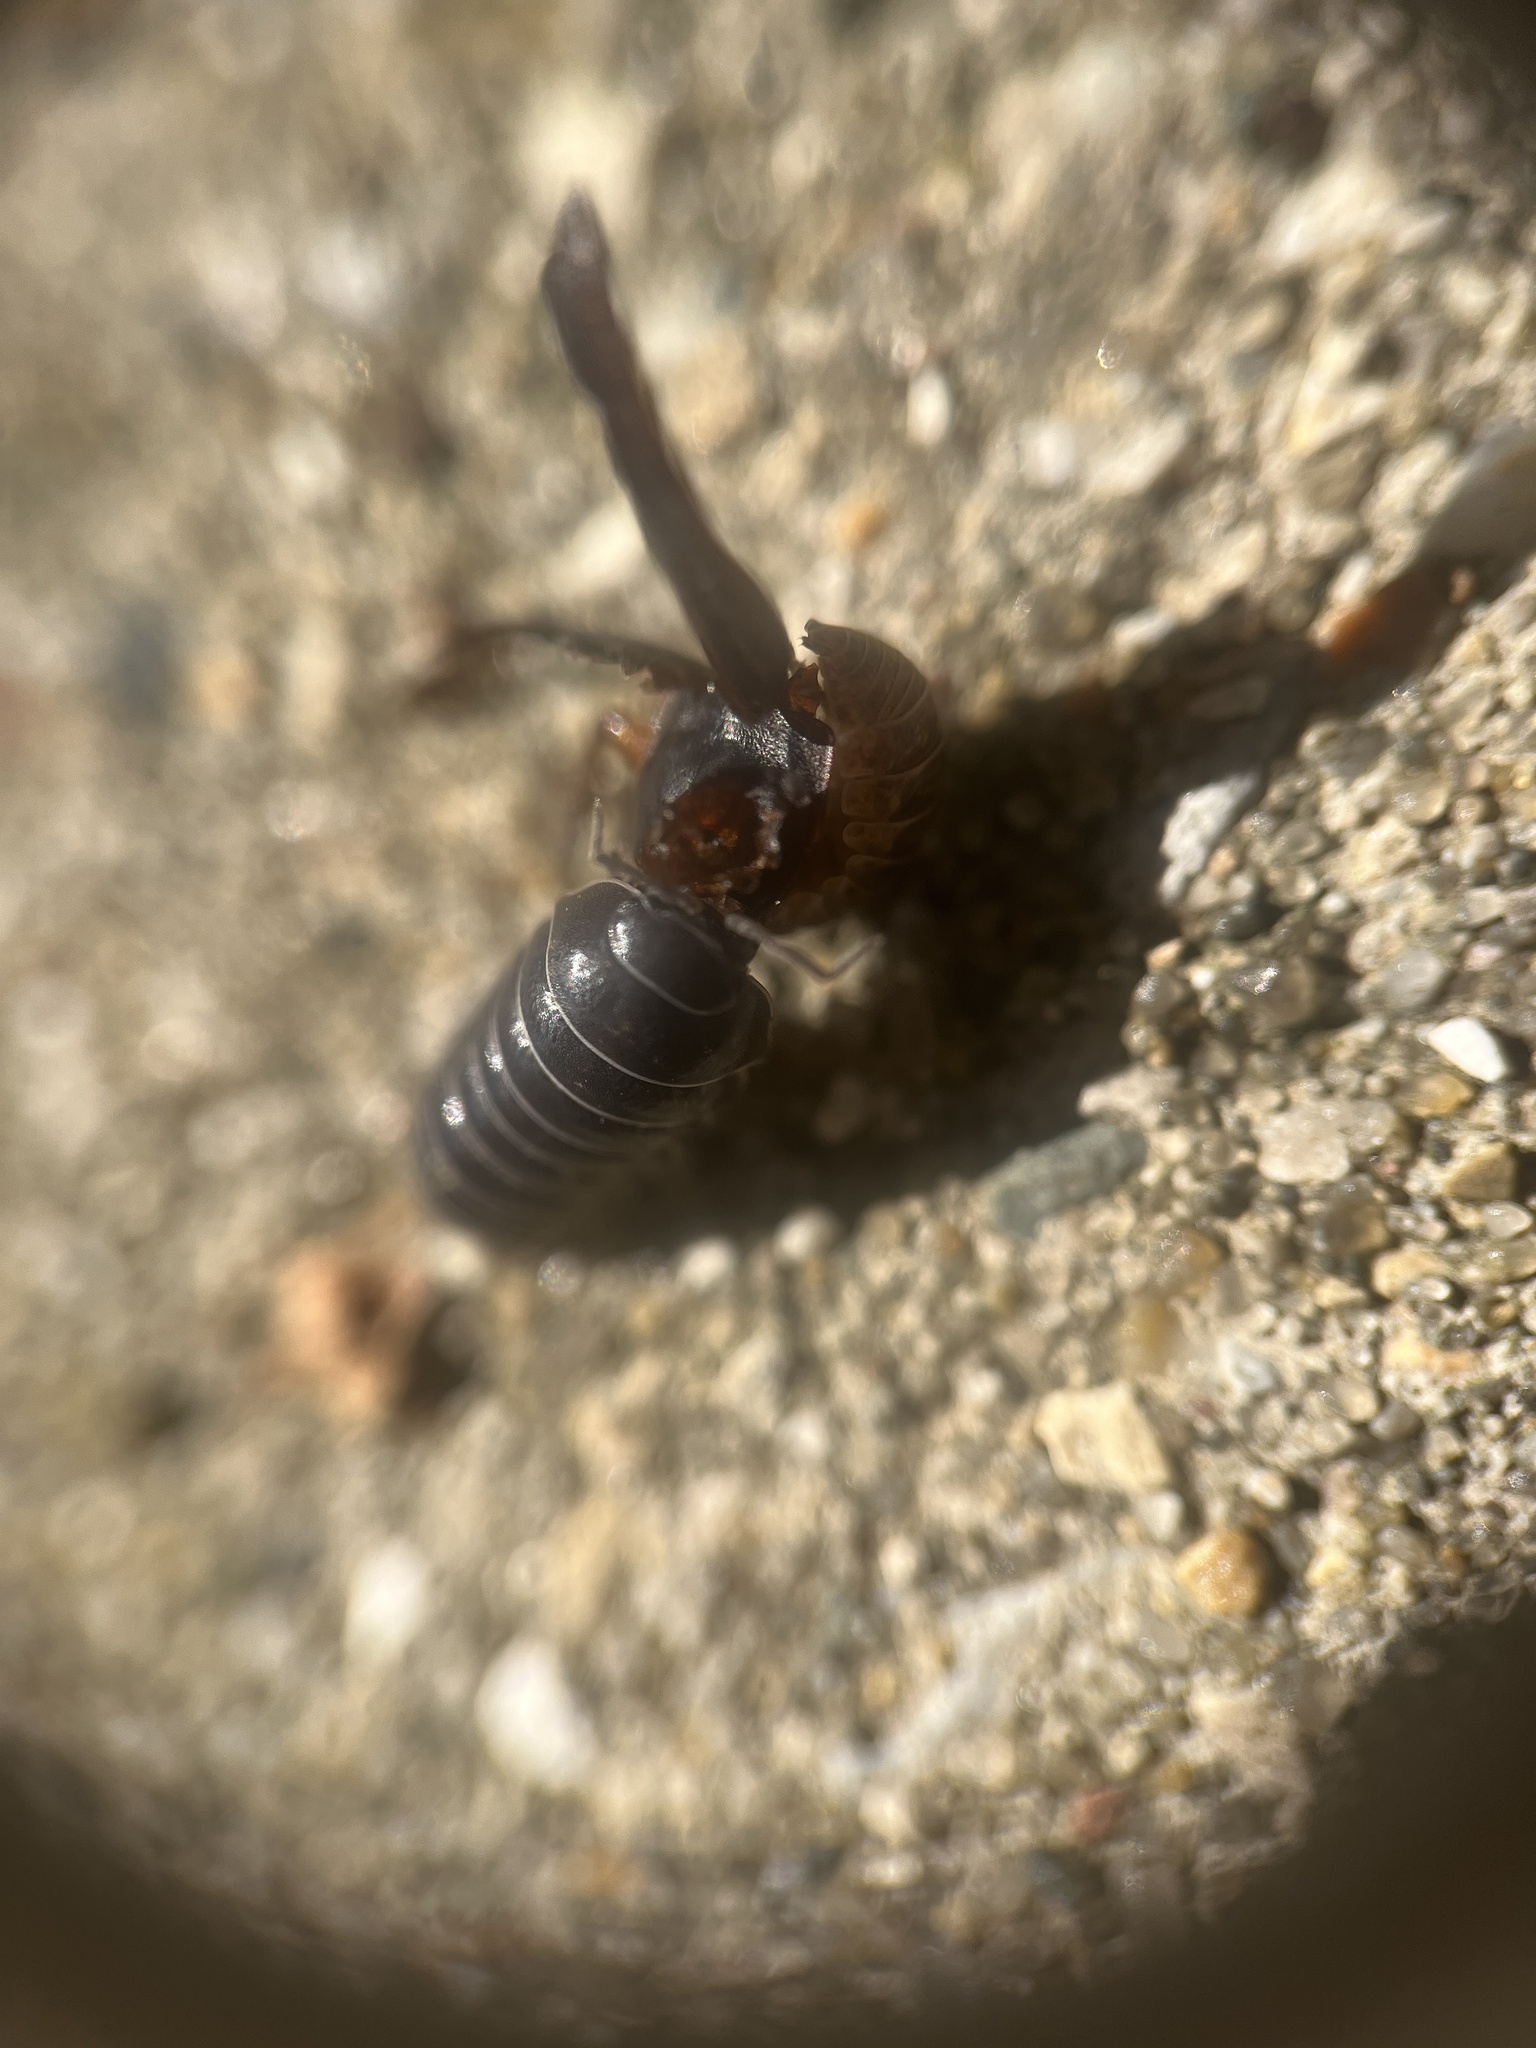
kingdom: Animalia
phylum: Arthropoda
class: Malacostraca
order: Isopoda
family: Armadillidiidae
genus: Armadillidium
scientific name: Armadillidium vulgare
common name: Common pill woodlouse
